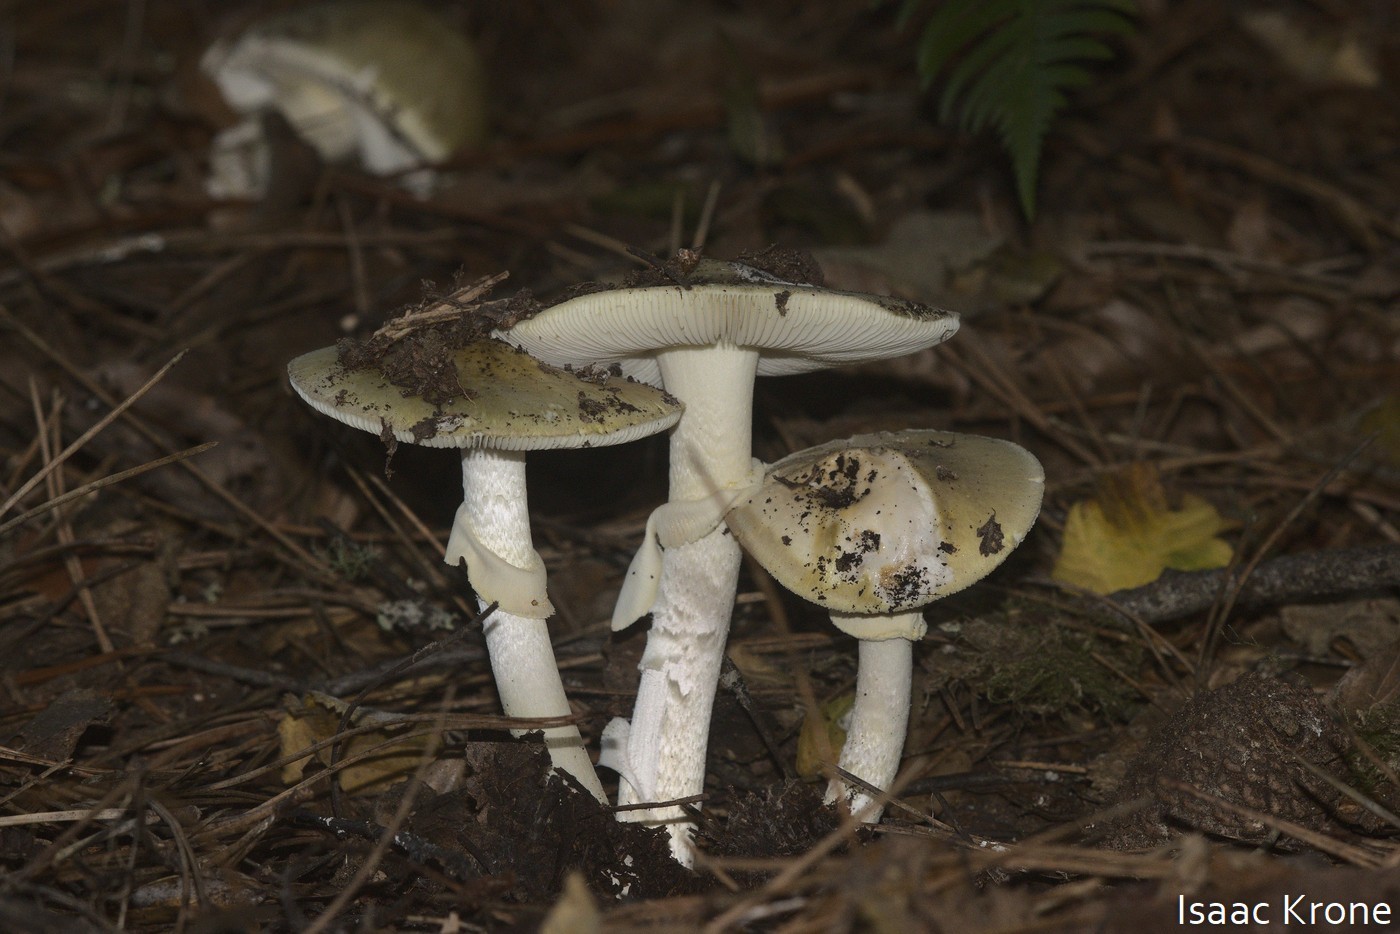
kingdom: Fungi
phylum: Basidiomycota
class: Agaricomycetes
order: Agaricales
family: Amanitaceae
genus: Amanita
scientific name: Amanita phalloides
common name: Death cap
